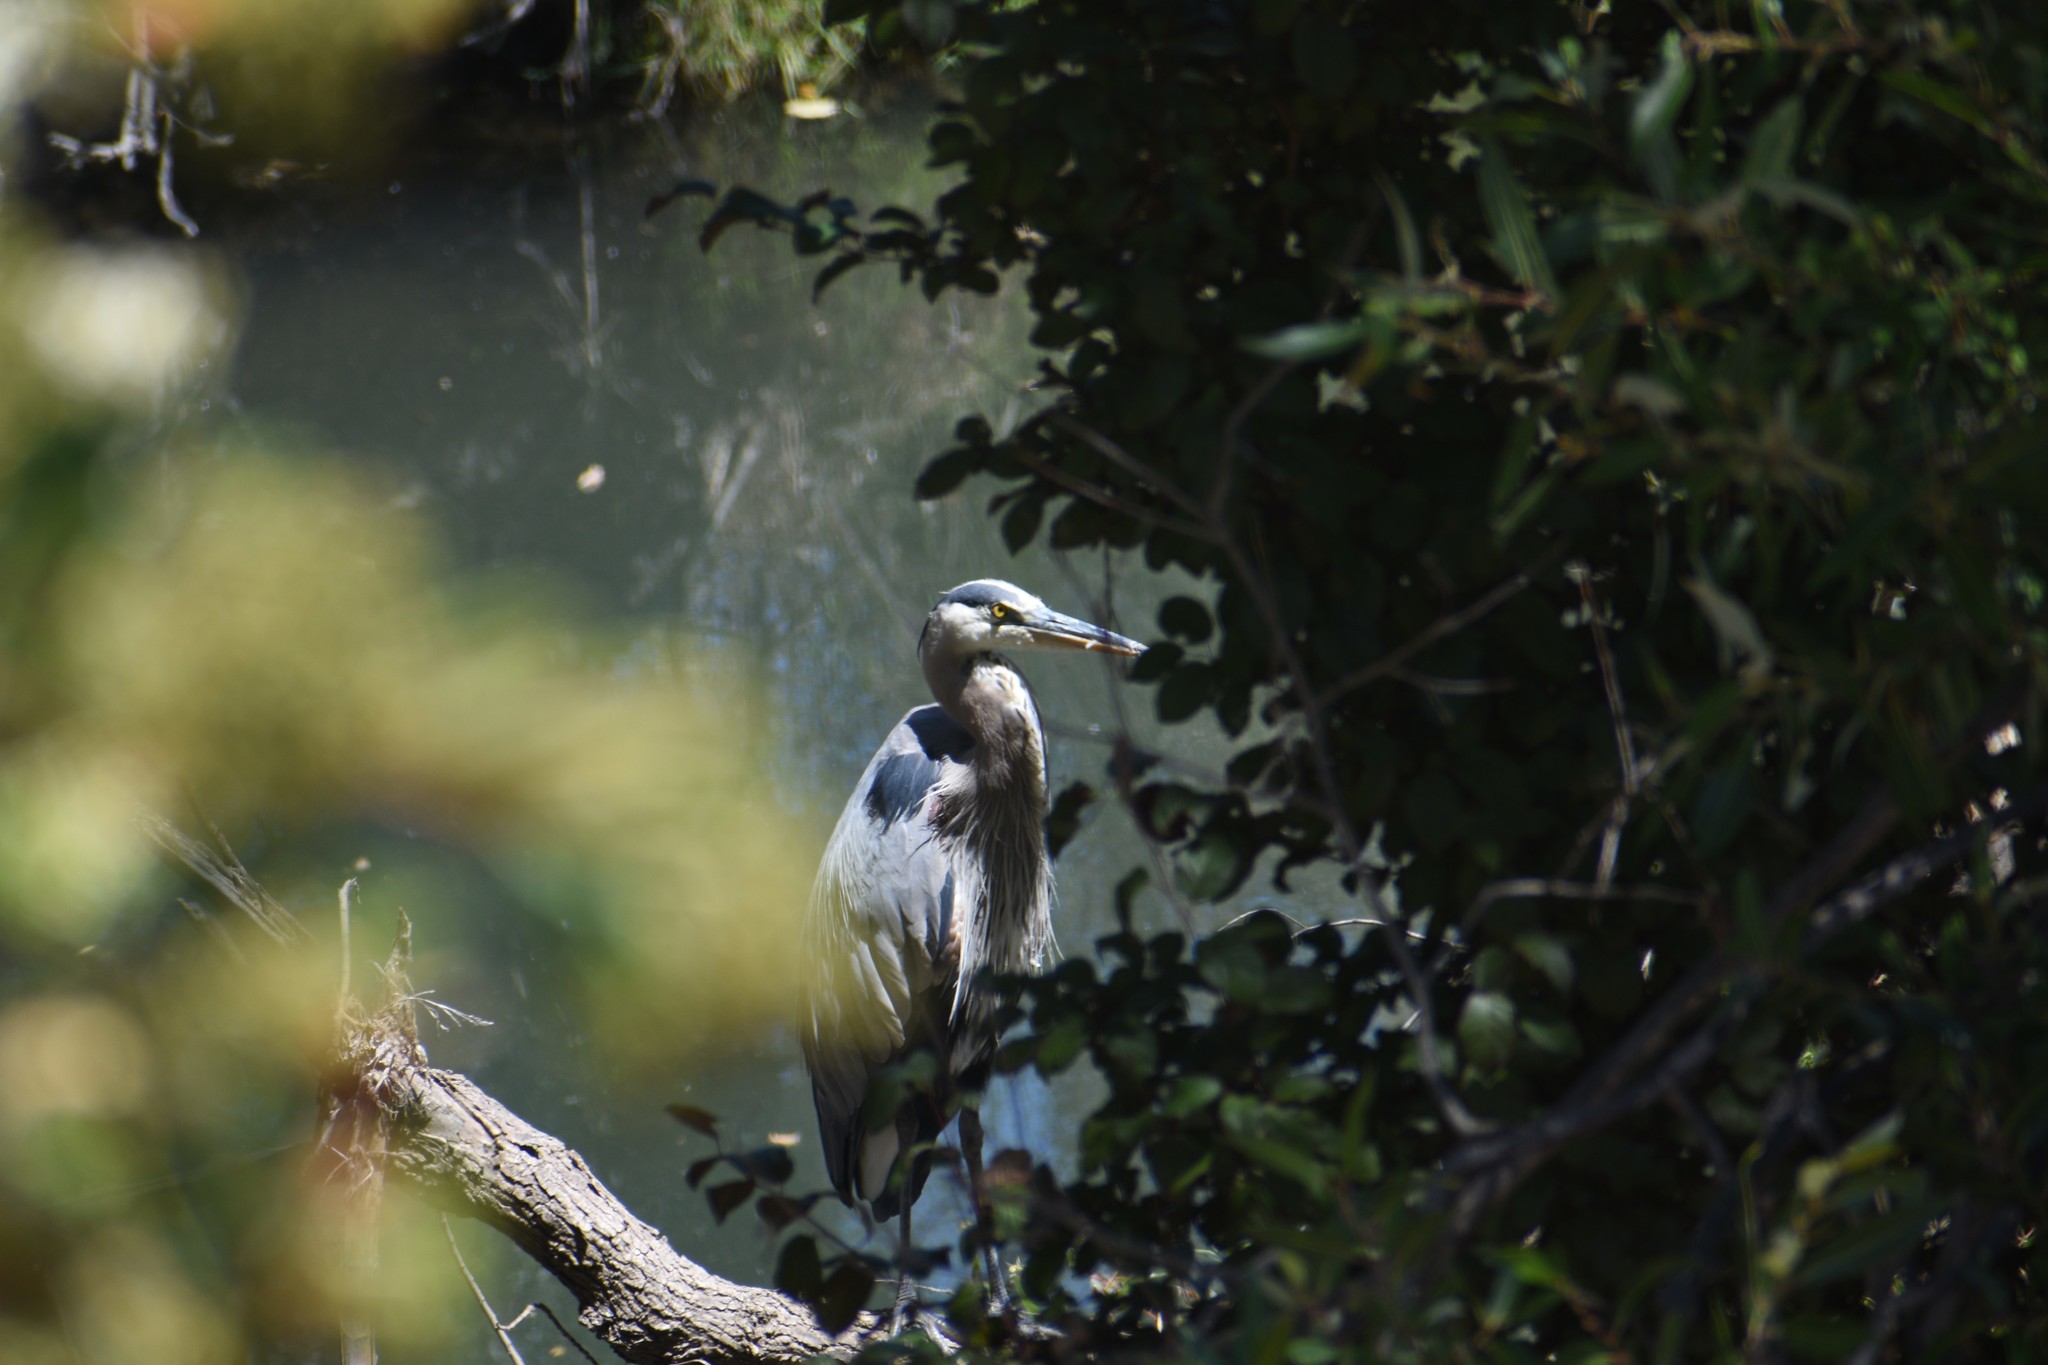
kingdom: Animalia
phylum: Chordata
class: Aves
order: Pelecaniformes
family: Ardeidae
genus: Ardea
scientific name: Ardea herodias
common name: Great blue heron
